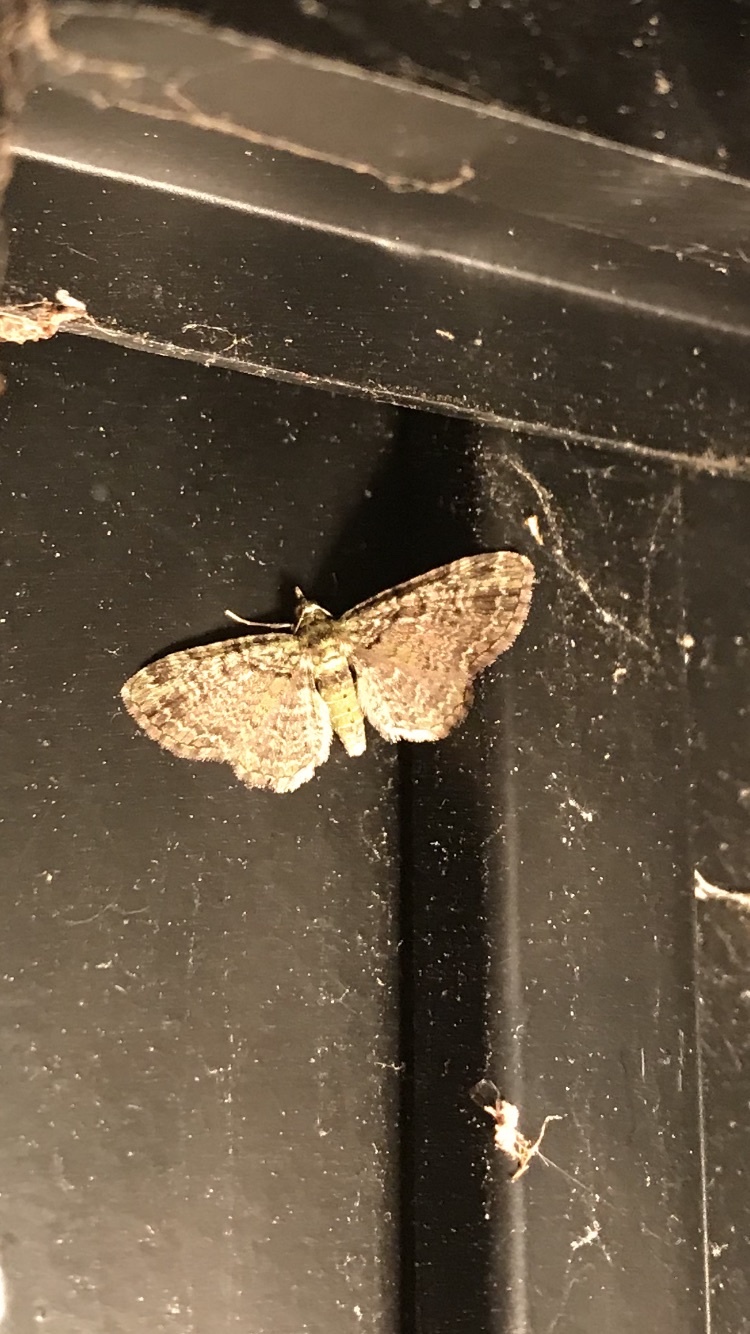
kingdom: Animalia
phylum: Arthropoda
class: Insecta
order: Lepidoptera
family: Geometridae
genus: Pasiphila
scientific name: Pasiphila rectangulata
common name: Green pug
